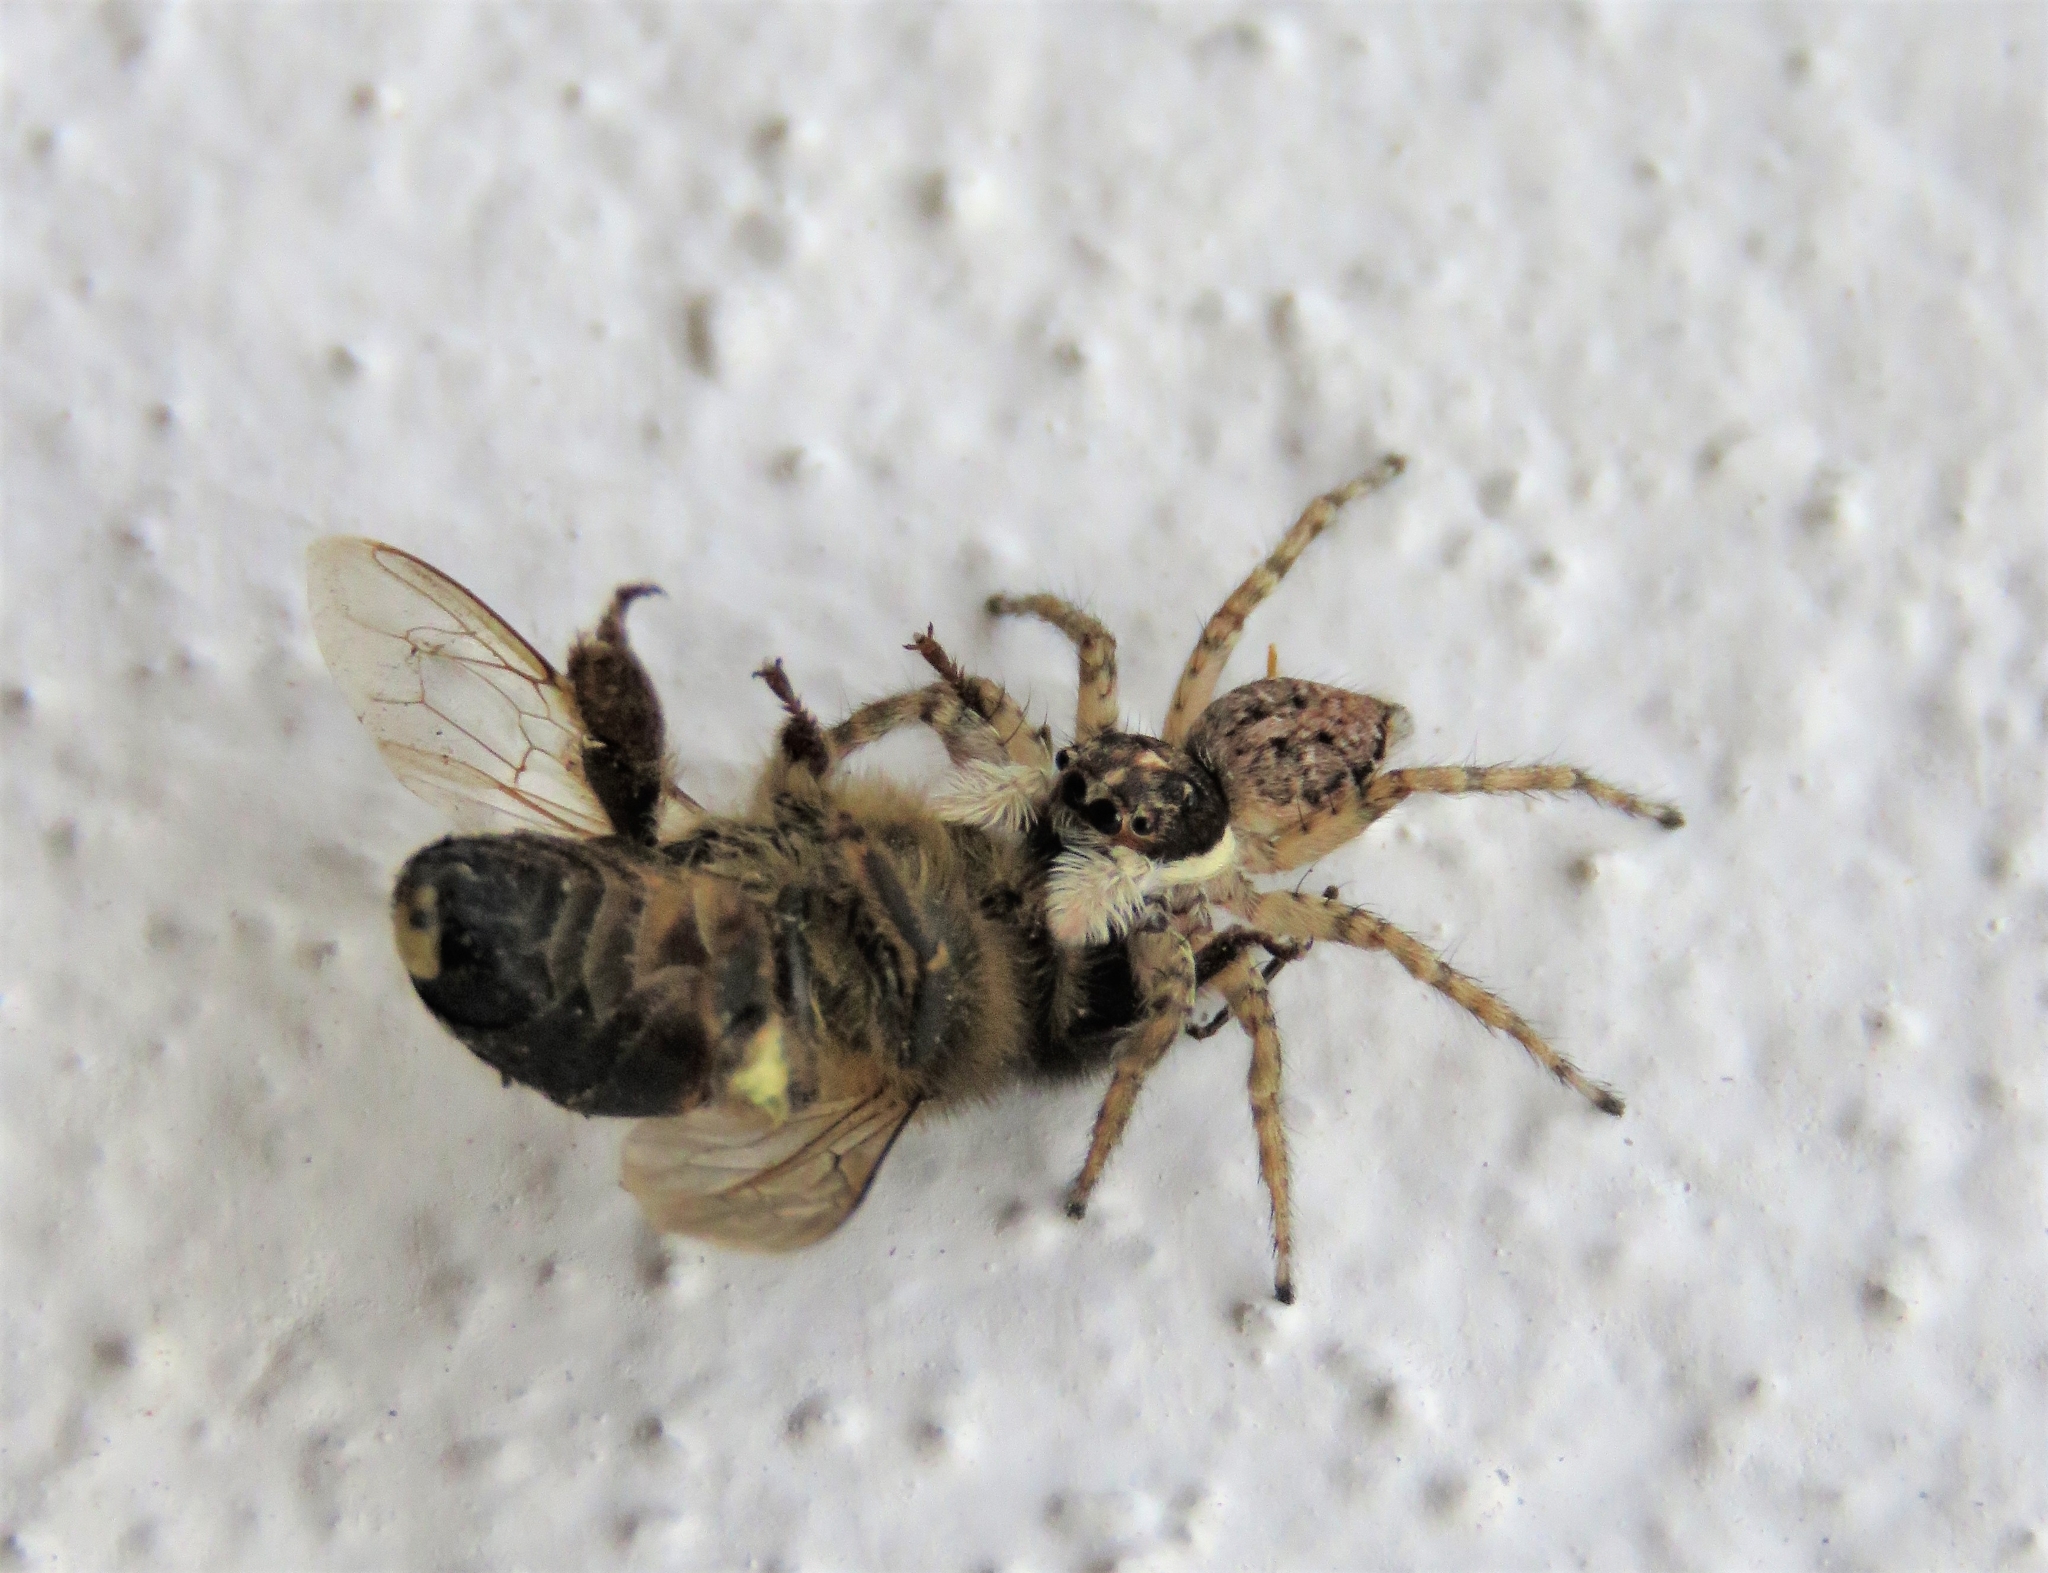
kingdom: Animalia
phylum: Arthropoda
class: Arachnida
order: Araneae
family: Salticidae
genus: Menemerus
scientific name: Menemerus semilimbatus
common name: Jumping spider
